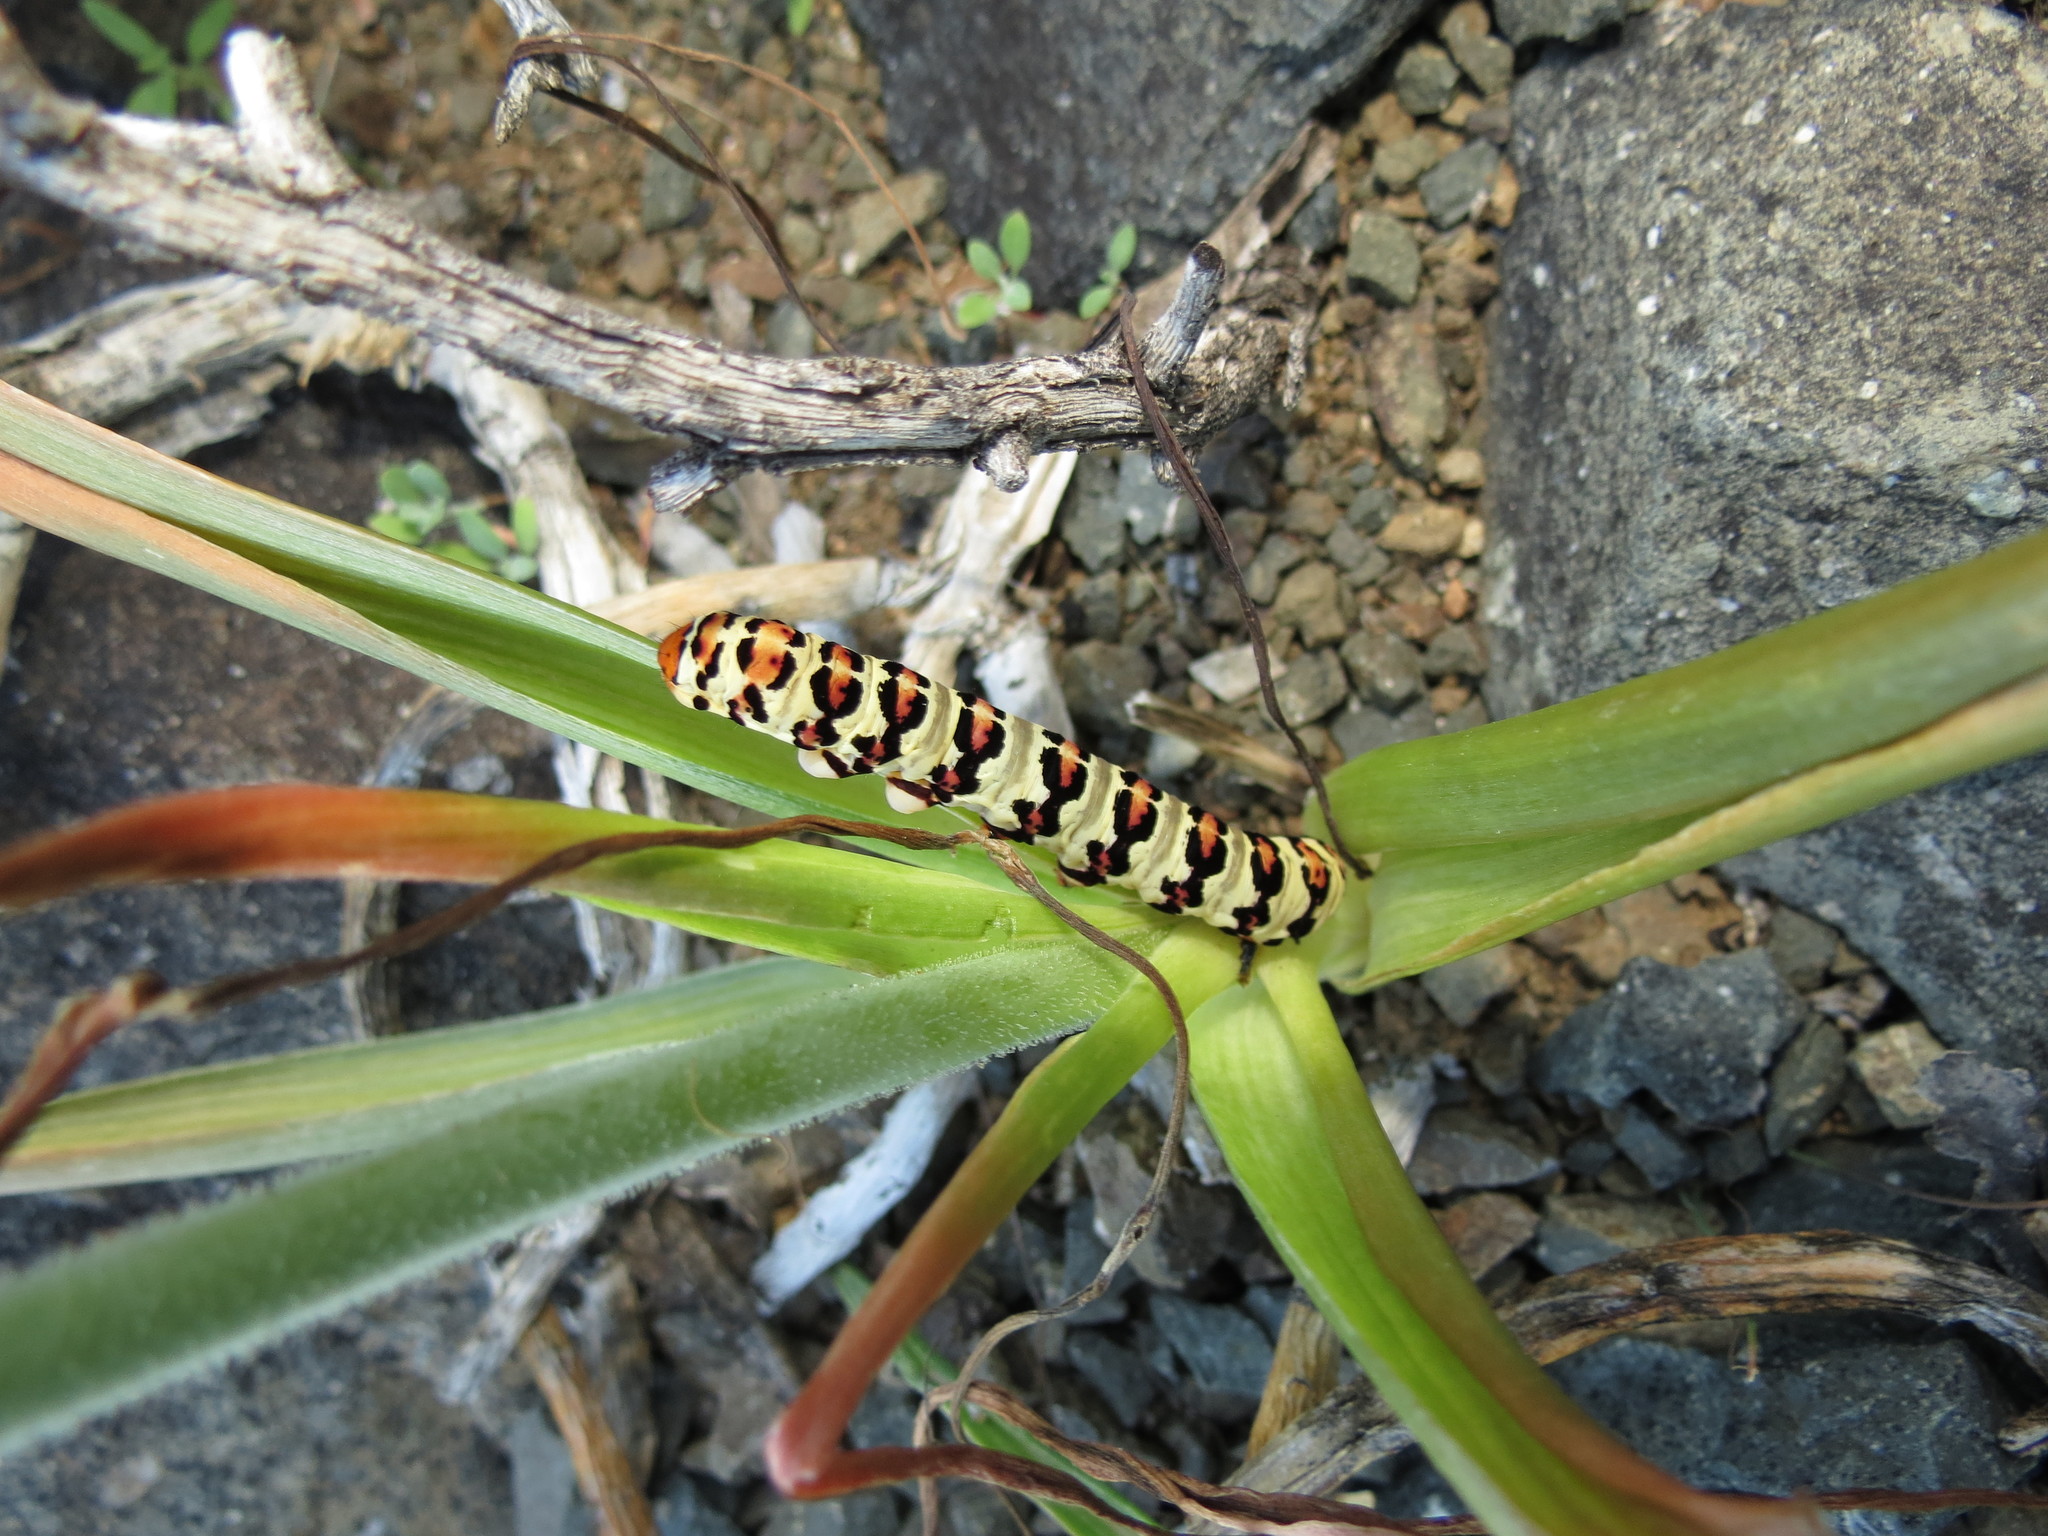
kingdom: Animalia
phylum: Arthropoda
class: Insecta
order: Lepidoptera
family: Noctuidae
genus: Diaphone
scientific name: Diaphone eumela
